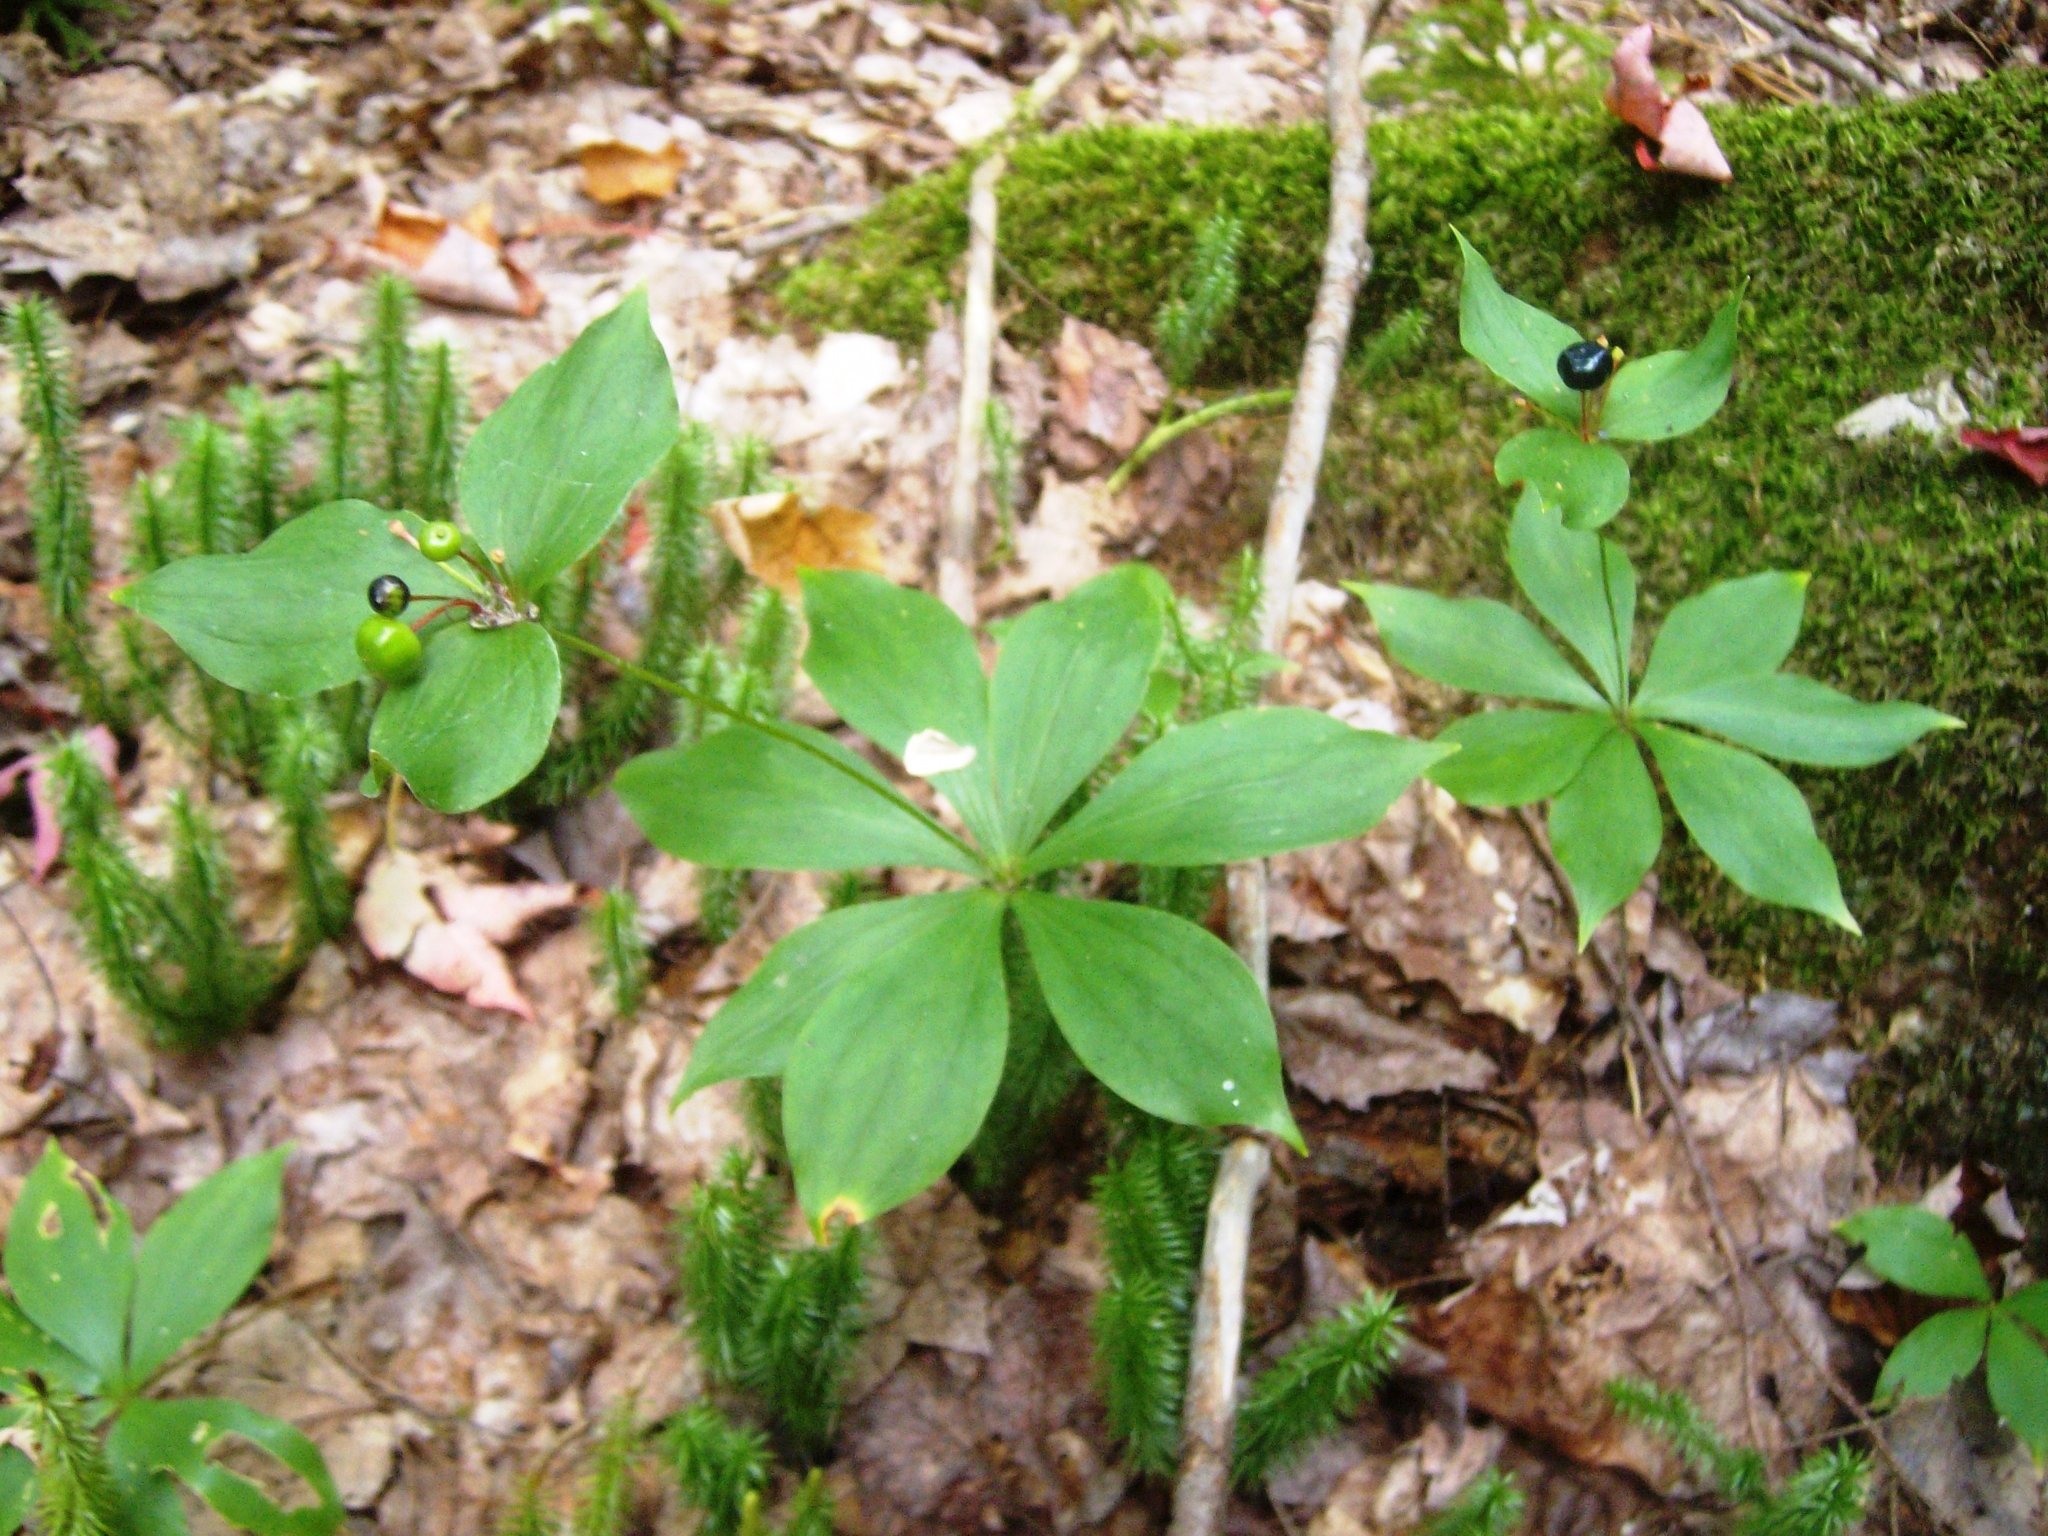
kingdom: Plantae
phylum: Tracheophyta
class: Liliopsida
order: Liliales
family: Liliaceae
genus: Medeola
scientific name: Medeola virginiana
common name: Indian cucumber-root
